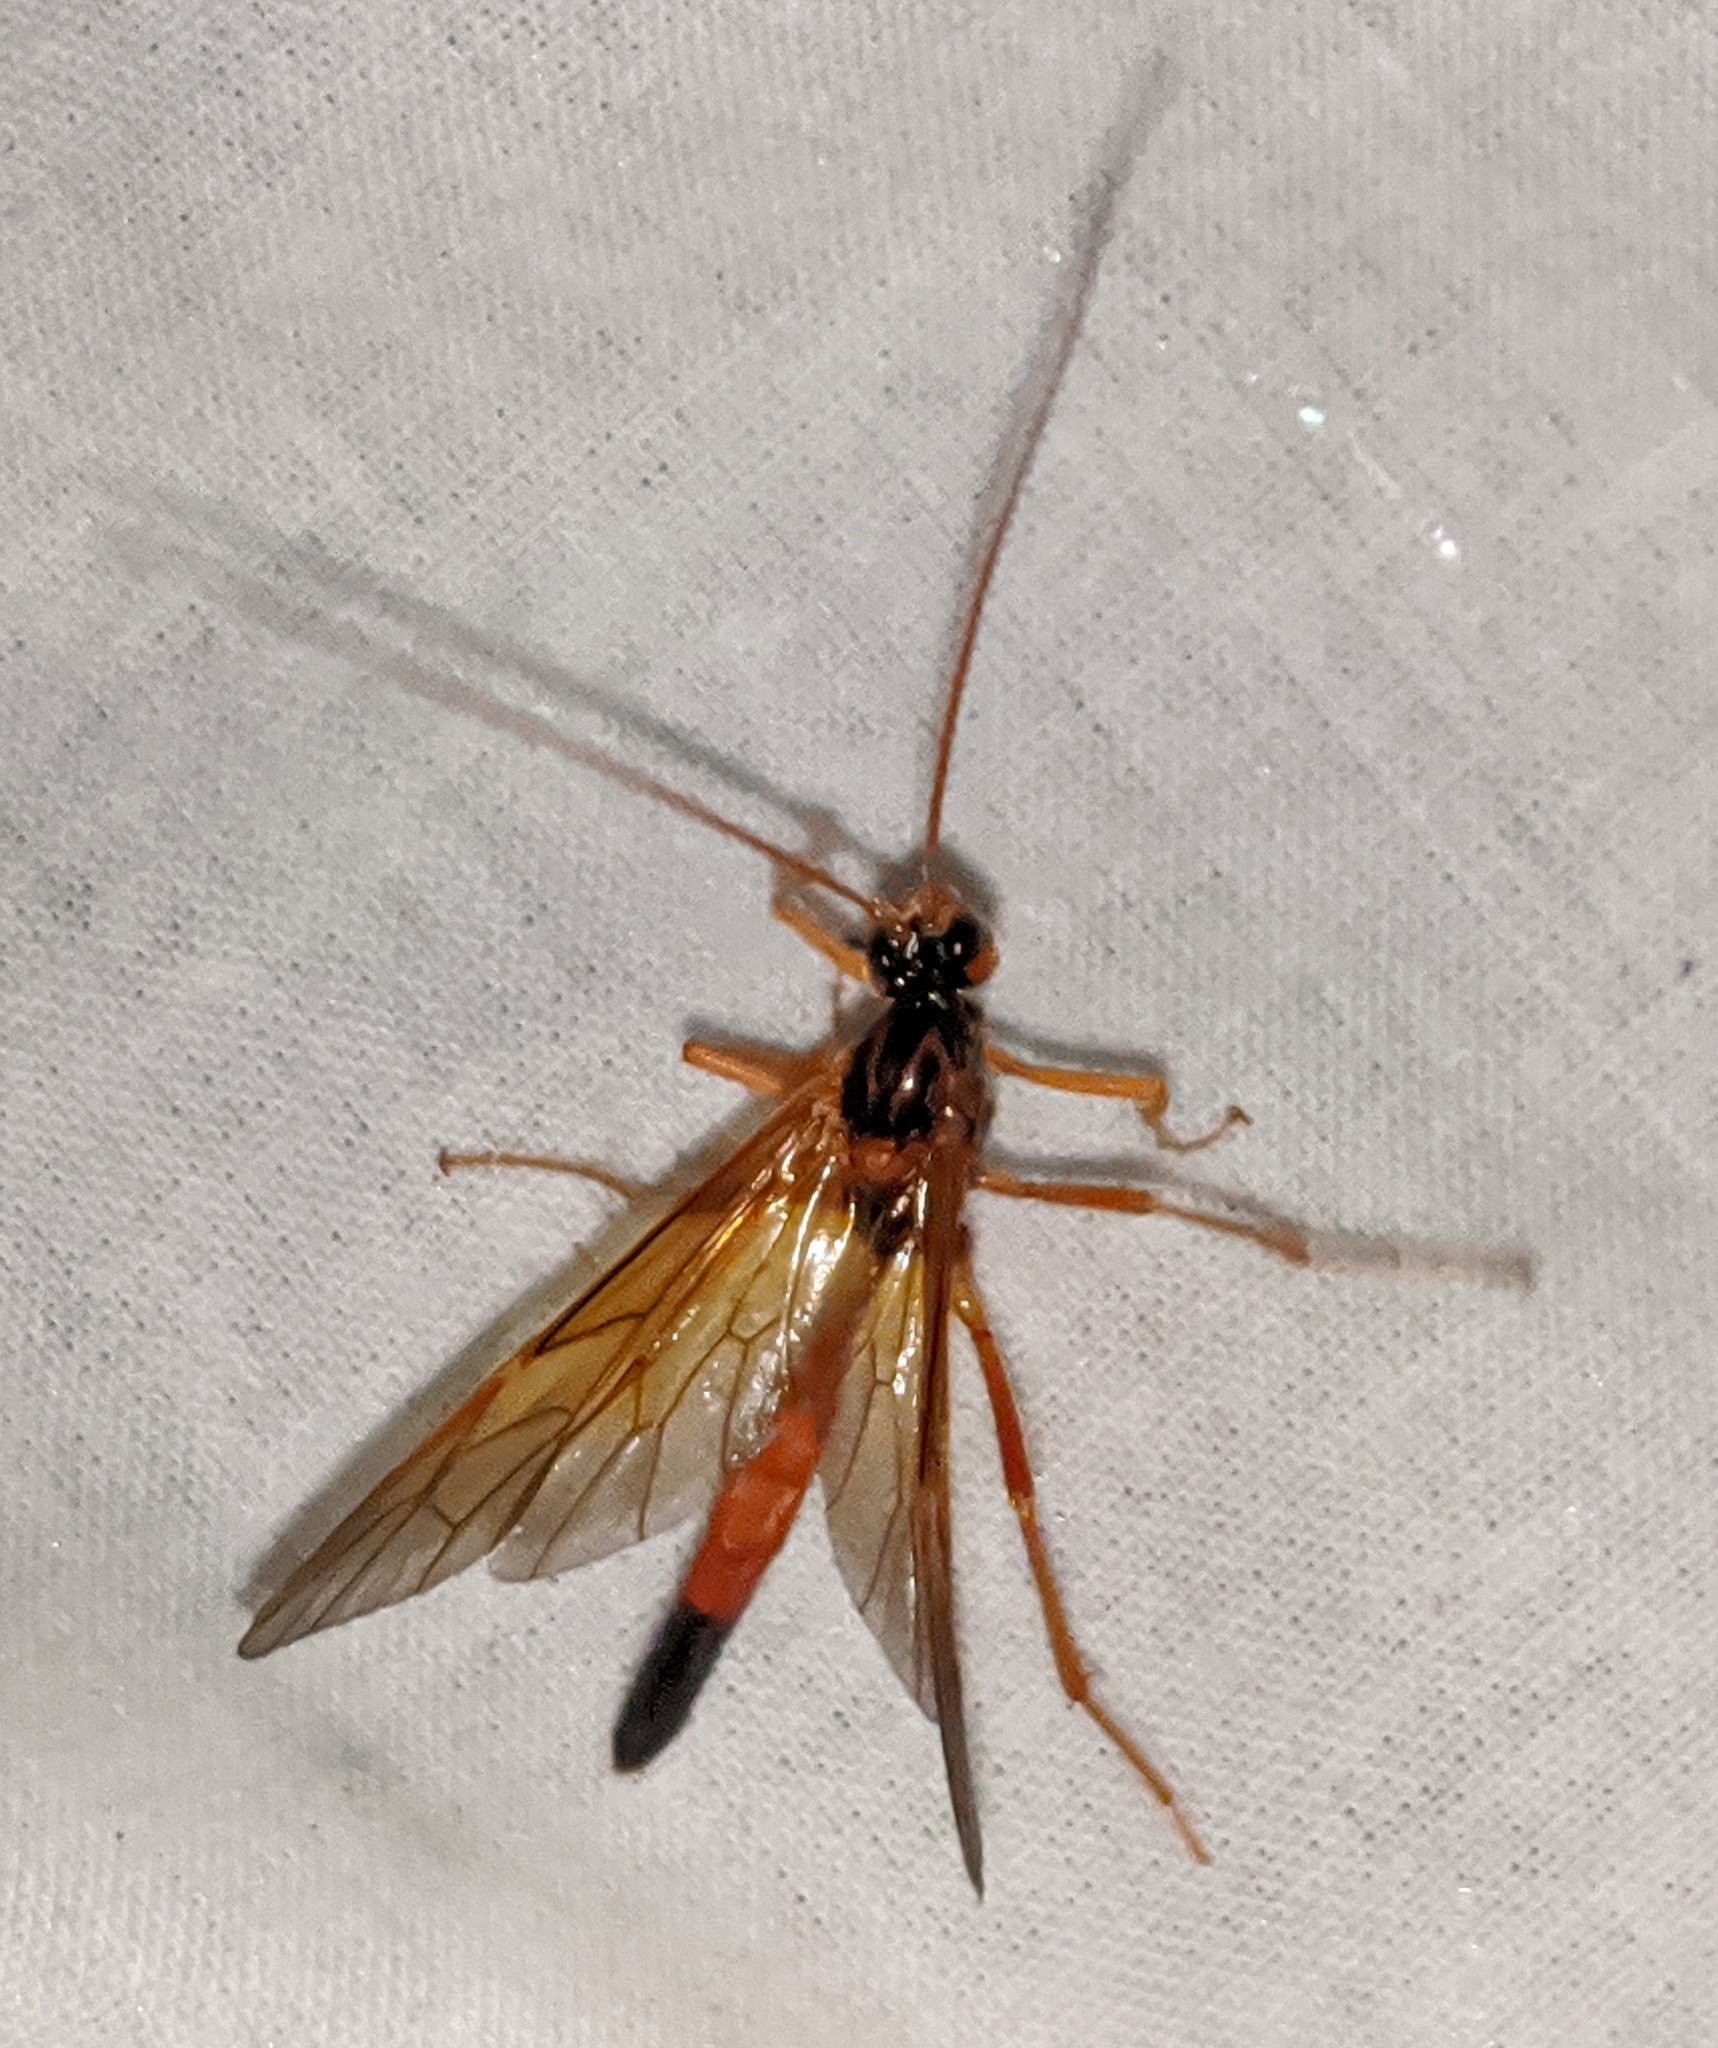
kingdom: Animalia
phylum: Arthropoda
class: Insecta
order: Hymenoptera
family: Ichneumonidae
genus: Opheltes
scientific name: Opheltes glaucopterus
